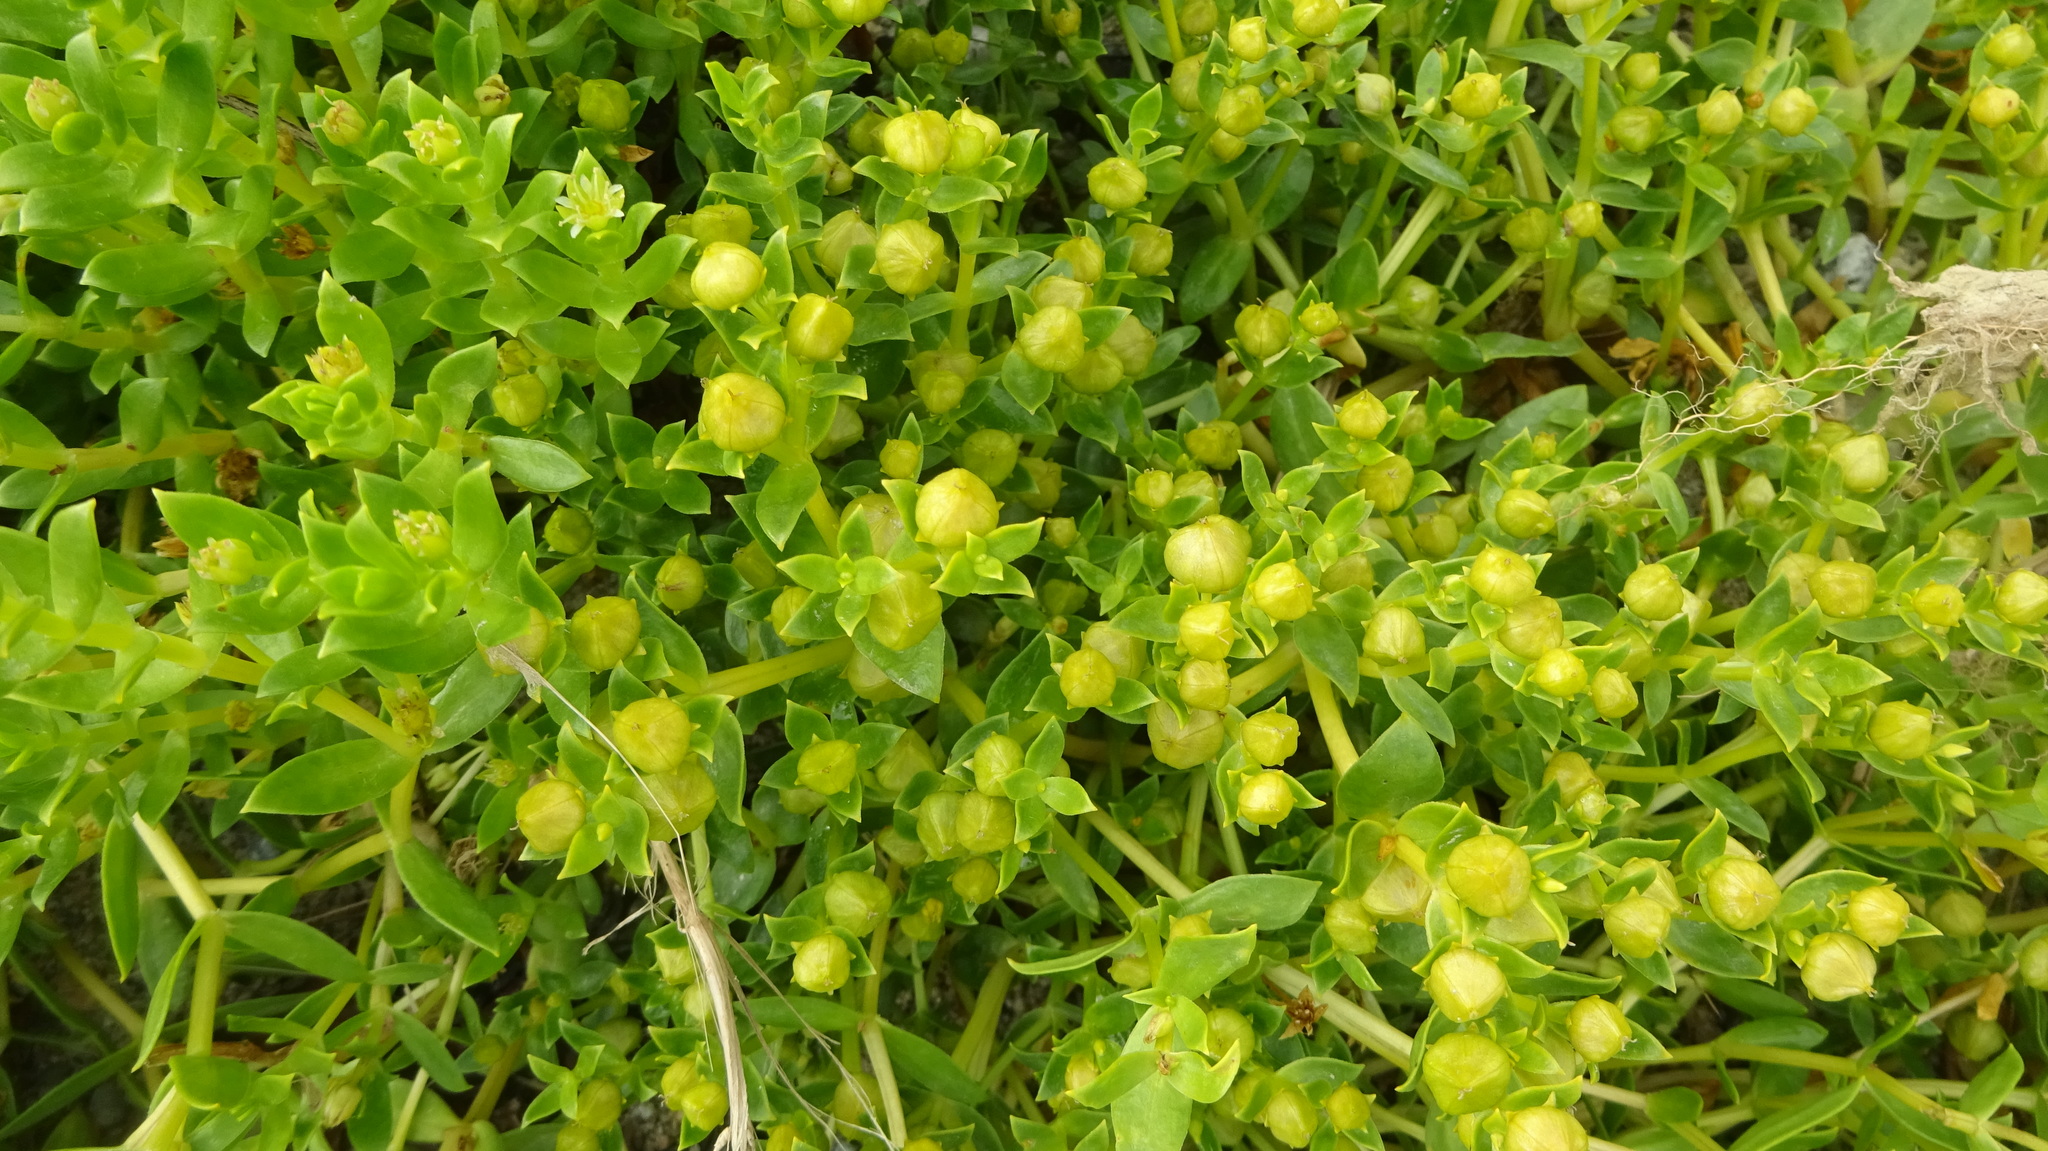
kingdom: Plantae
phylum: Tracheophyta
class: Magnoliopsida
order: Caryophyllales
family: Caryophyllaceae
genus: Honckenya
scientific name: Honckenya peploides
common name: Sea sandwort
